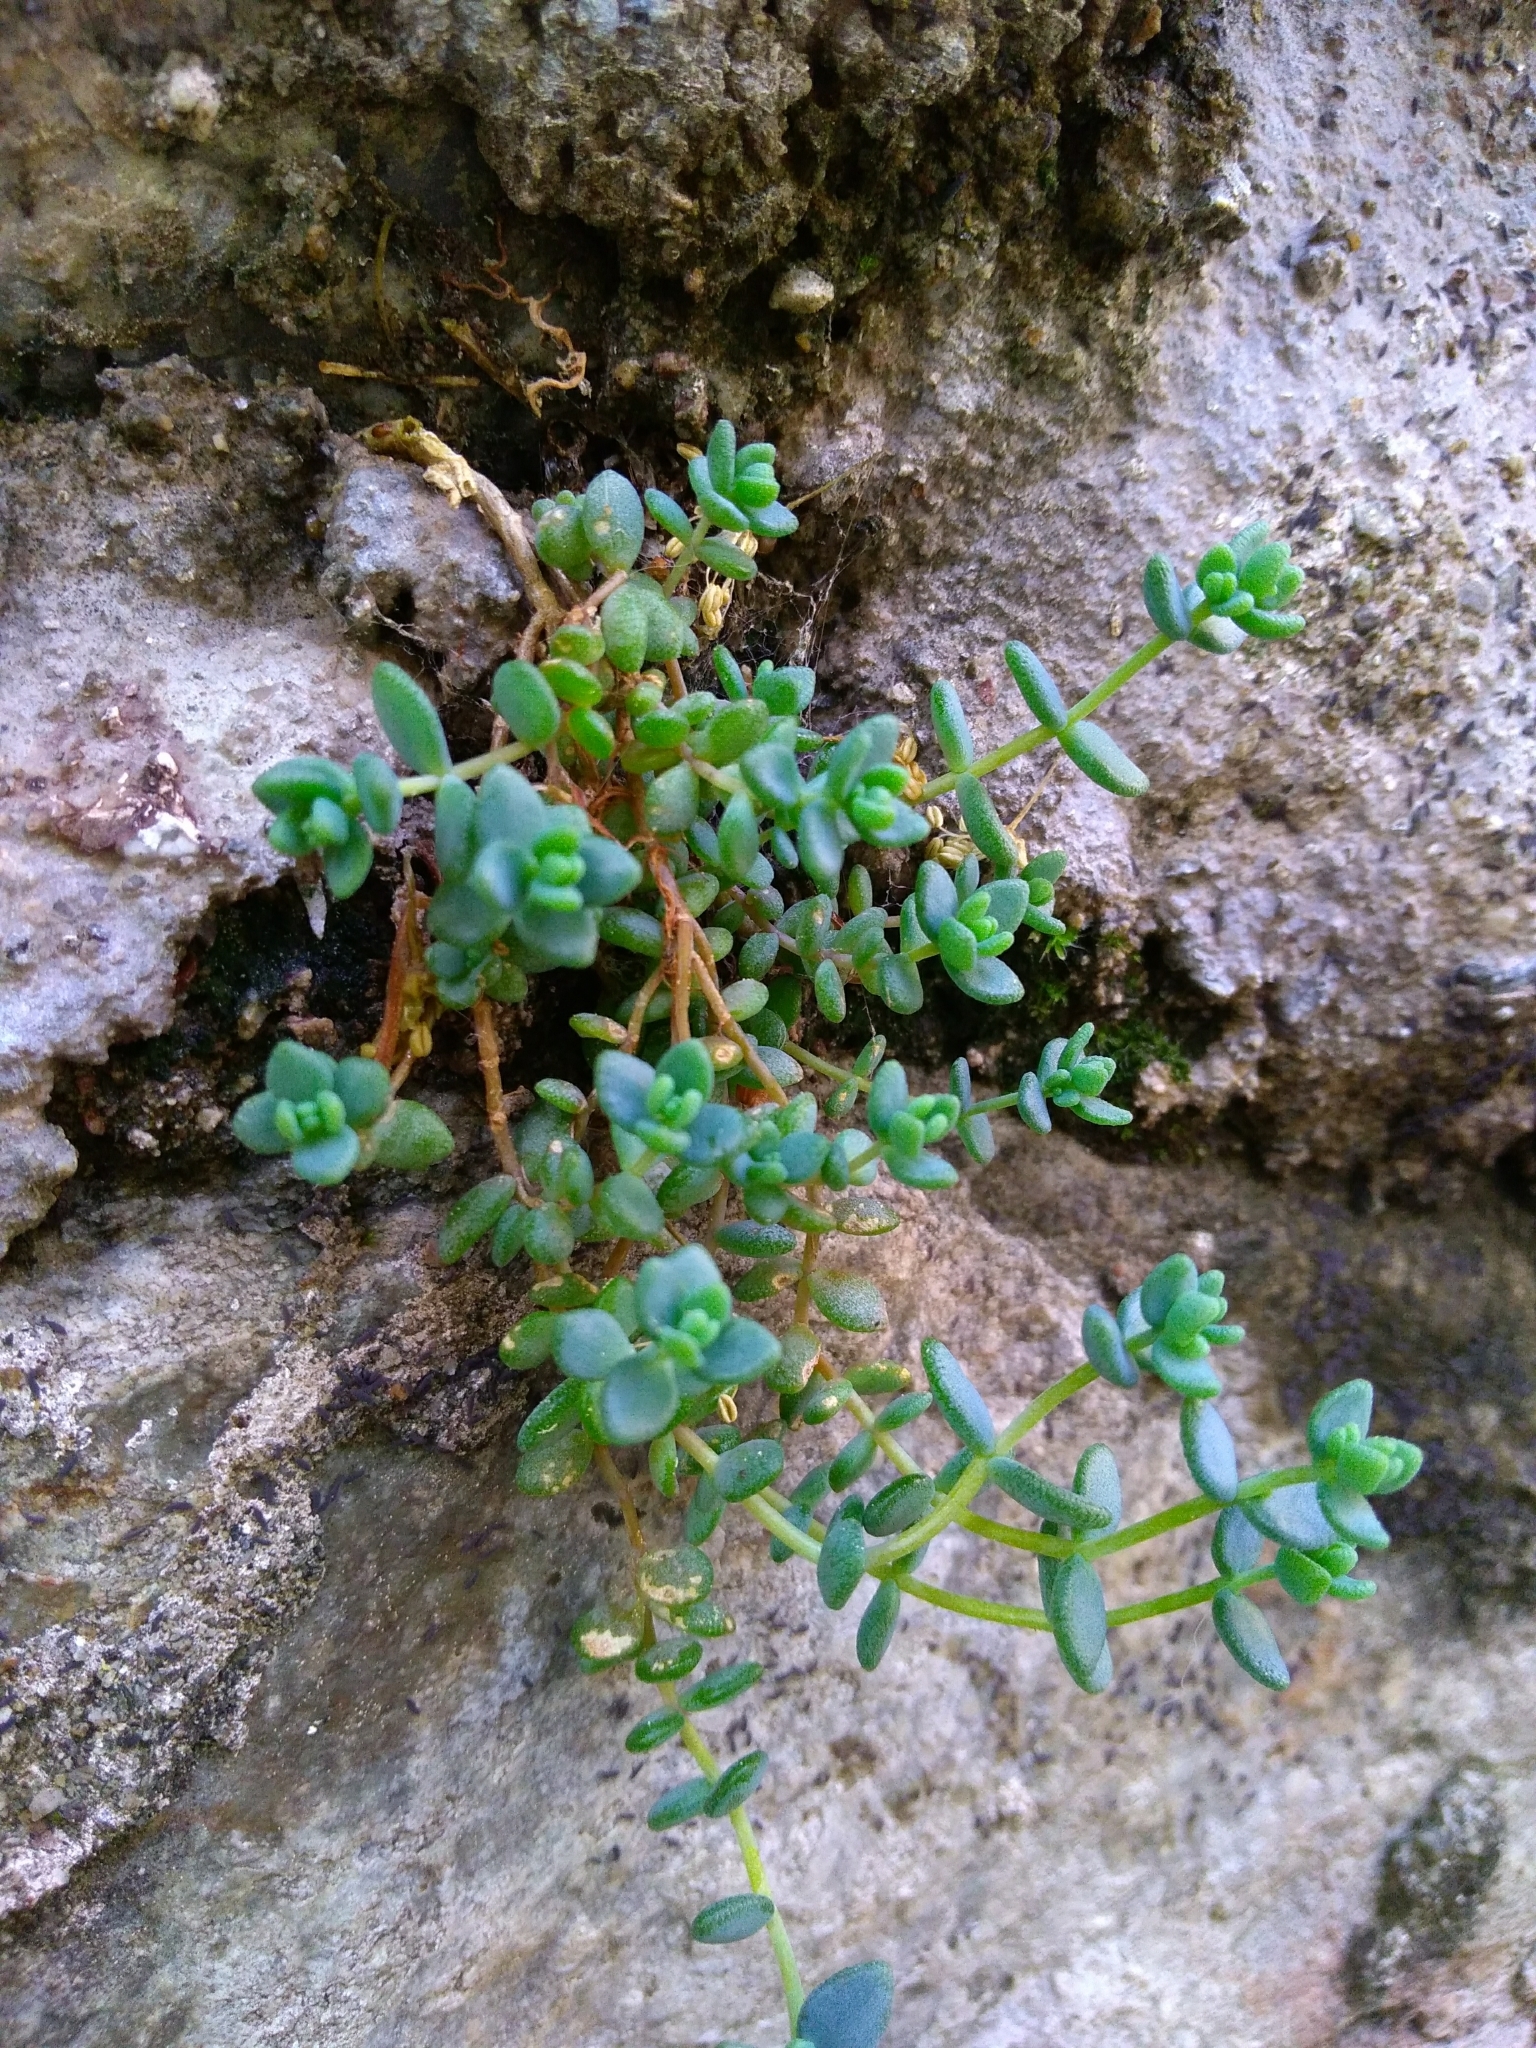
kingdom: Plantae
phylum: Tracheophyta
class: Magnoliopsida
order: Saxifragales
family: Crassulaceae
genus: Sedum
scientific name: Sedum dasyphyllum
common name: Thick-leaf stonecrop
